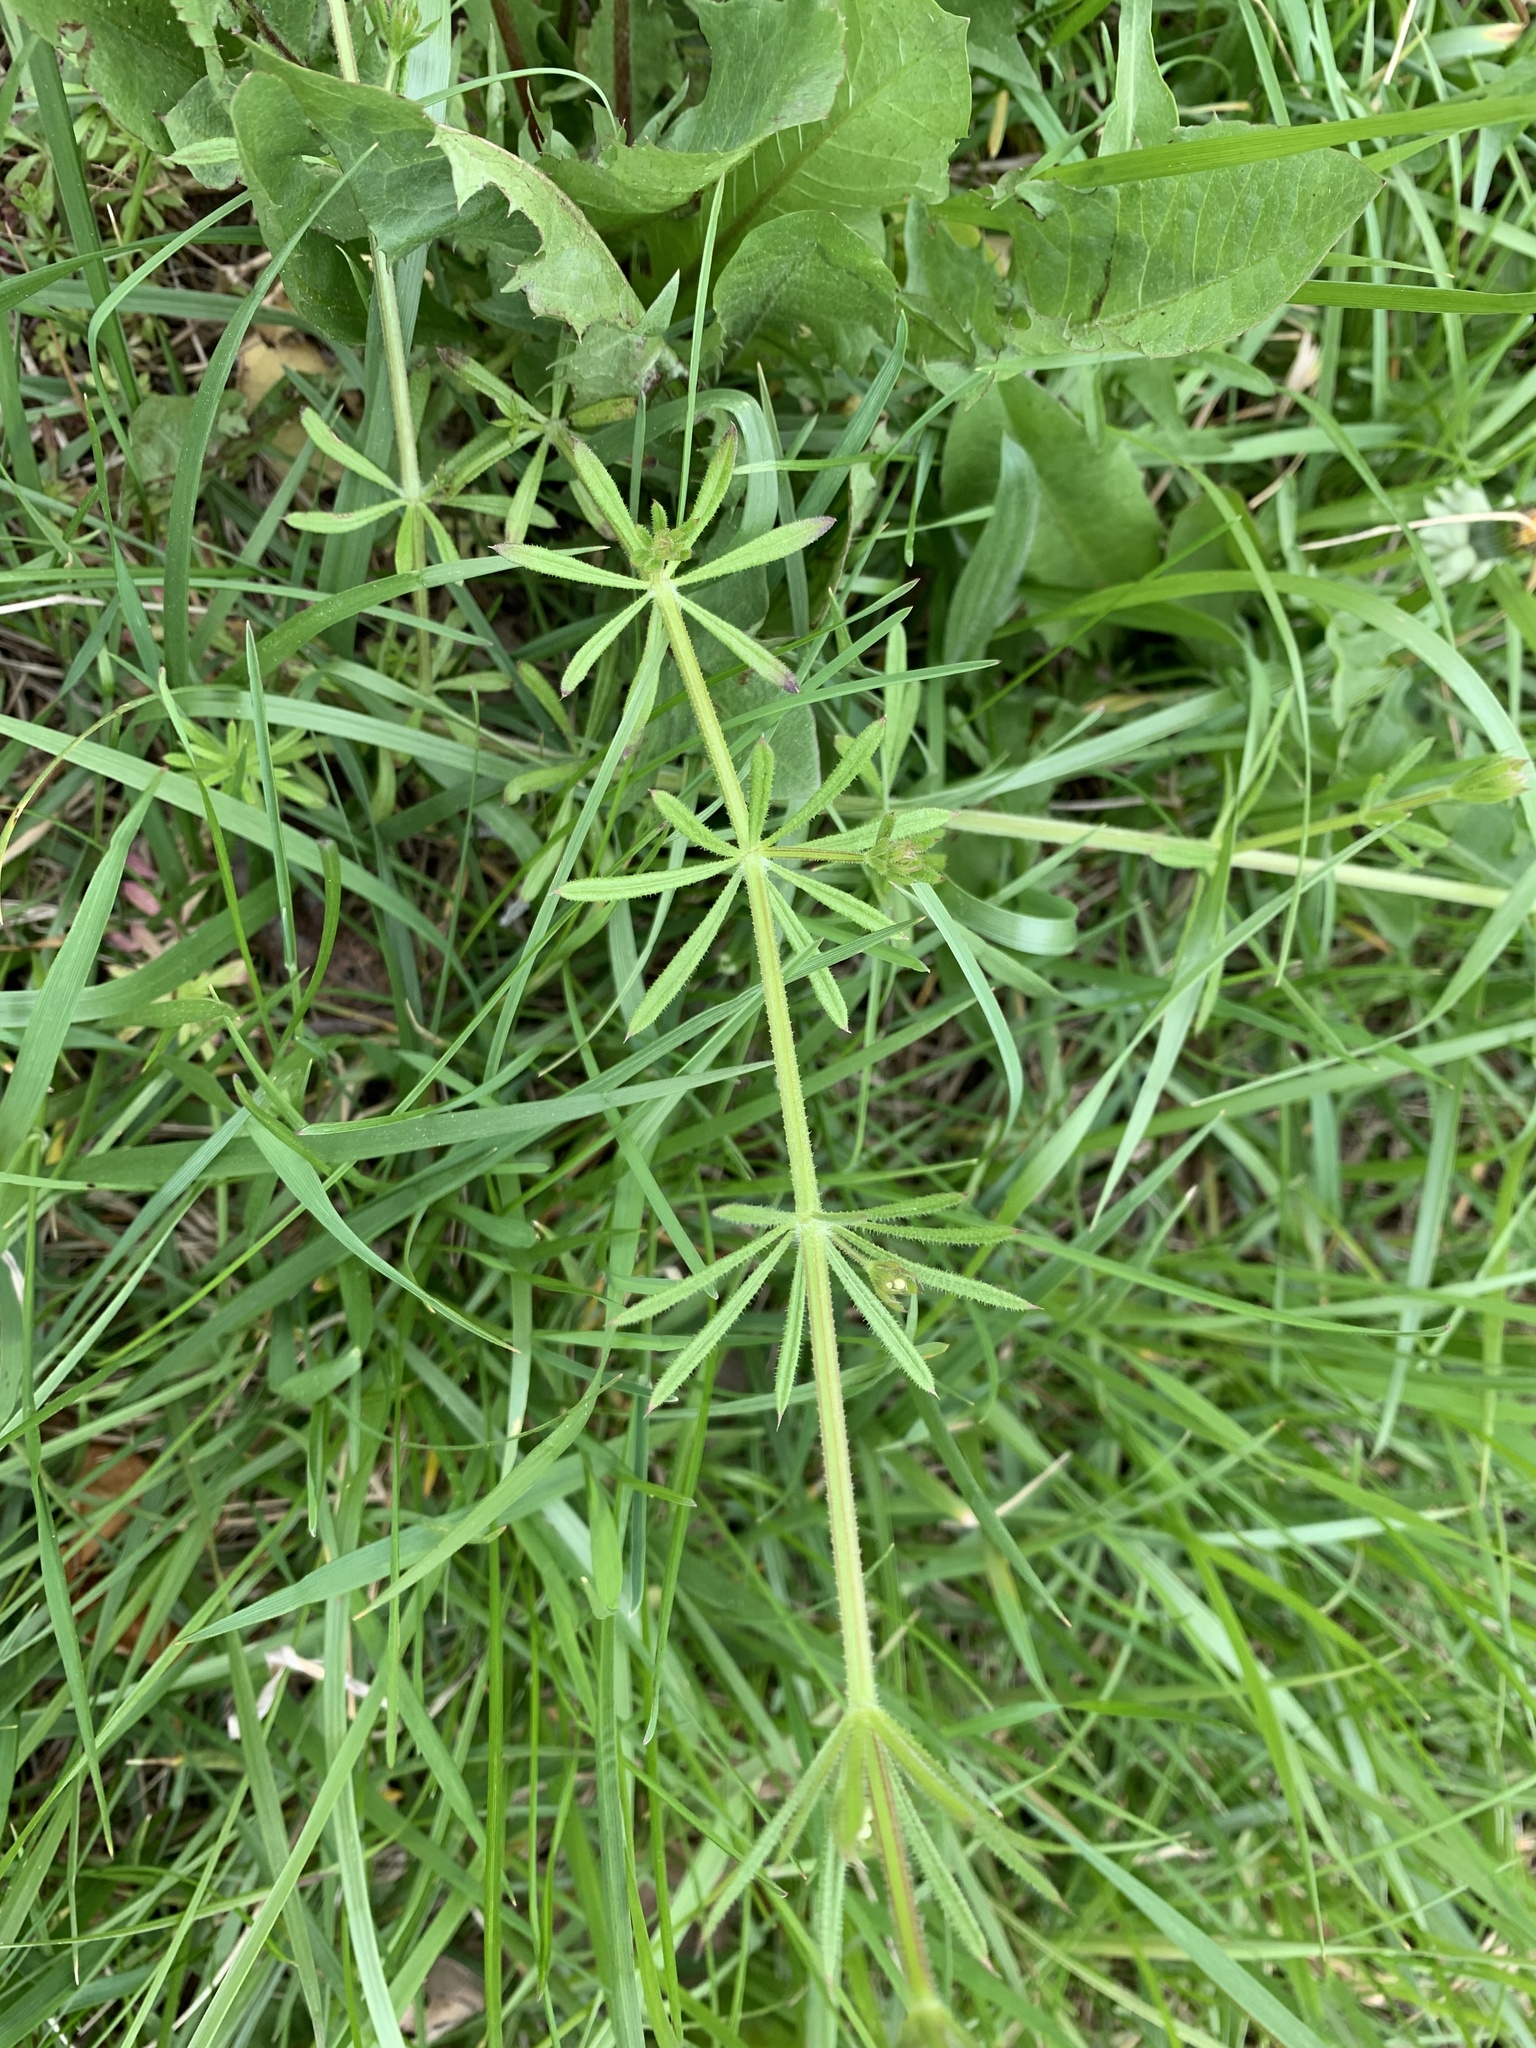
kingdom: Plantae
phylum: Tracheophyta
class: Magnoliopsida
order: Gentianales
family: Rubiaceae
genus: Galium
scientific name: Galium aparine
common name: Cleavers
